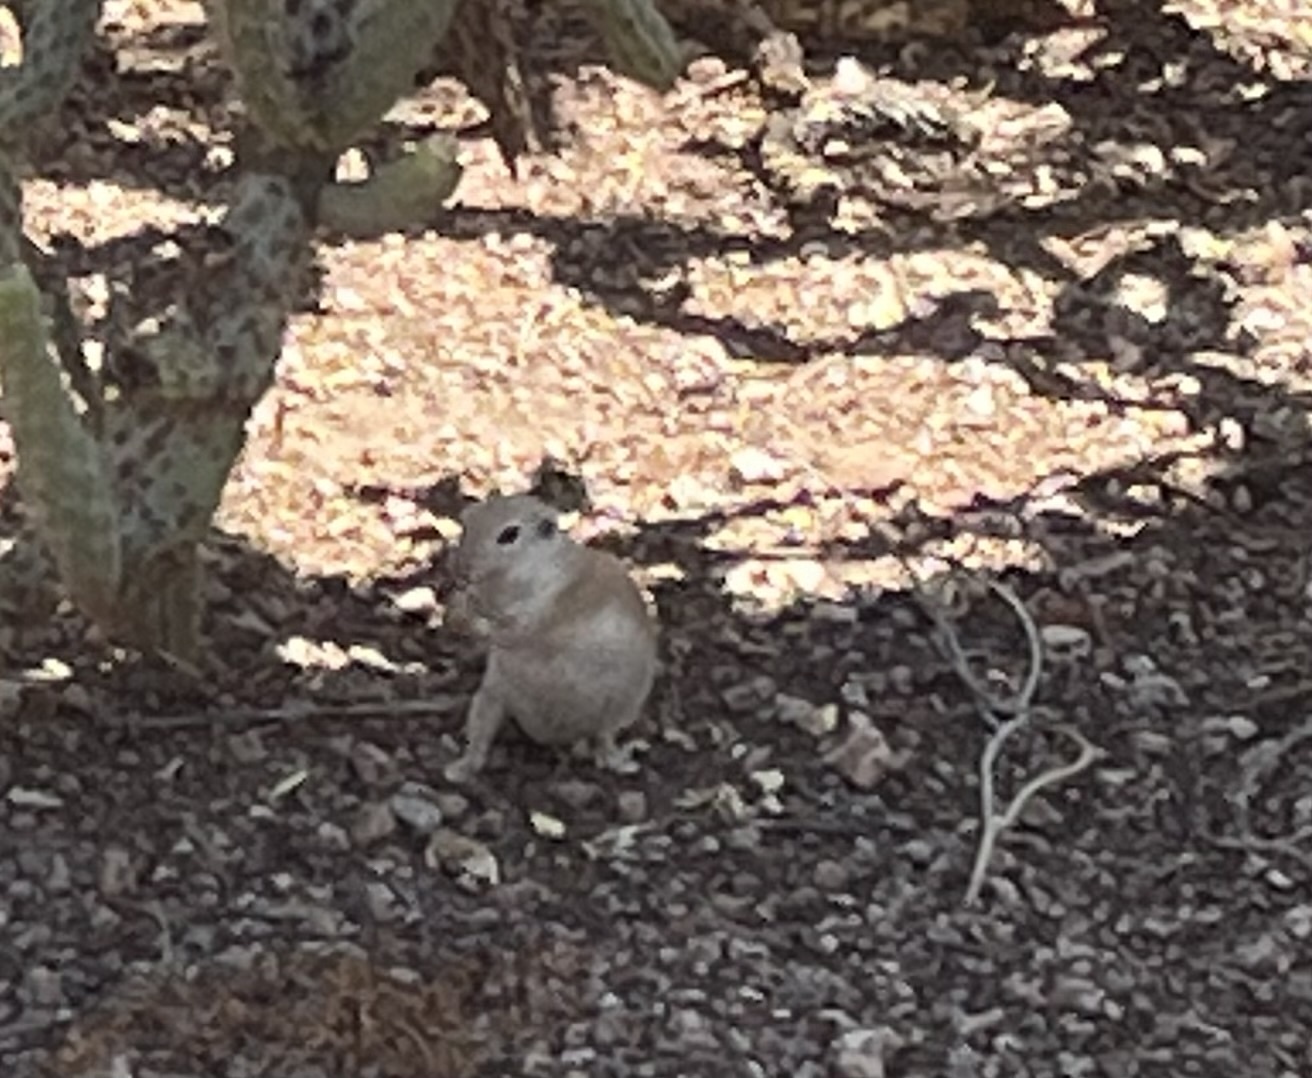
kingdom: Animalia
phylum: Chordata
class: Mammalia
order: Rodentia
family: Sciuridae
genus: Xerospermophilus
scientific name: Xerospermophilus tereticaudus
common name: Round-tailed ground squirrel
